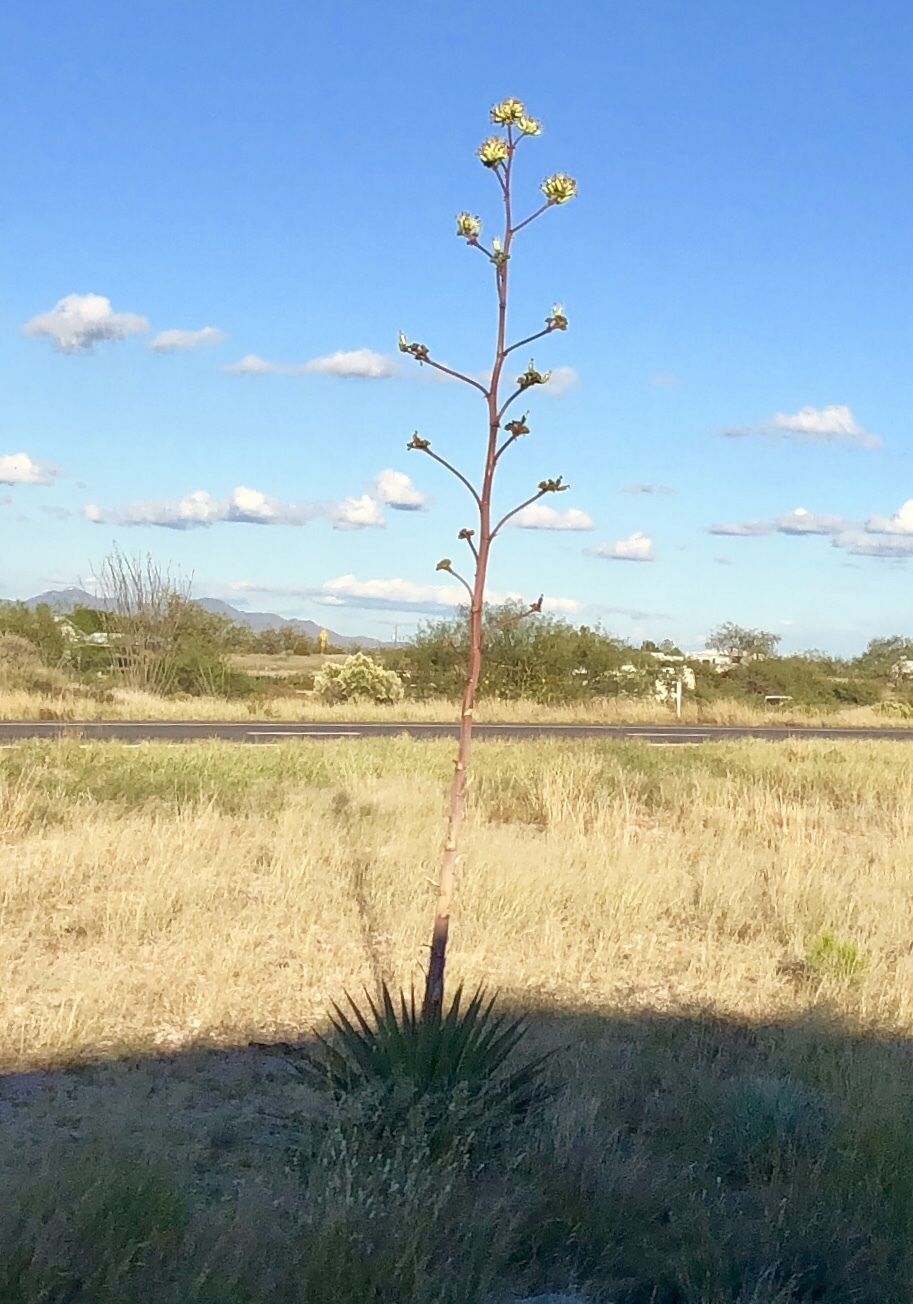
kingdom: Plantae
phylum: Tracheophyta
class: Liliopsida
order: Asparagales
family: Asparagaceae
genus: Agave
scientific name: Agave palmeri
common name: Palmer agave
